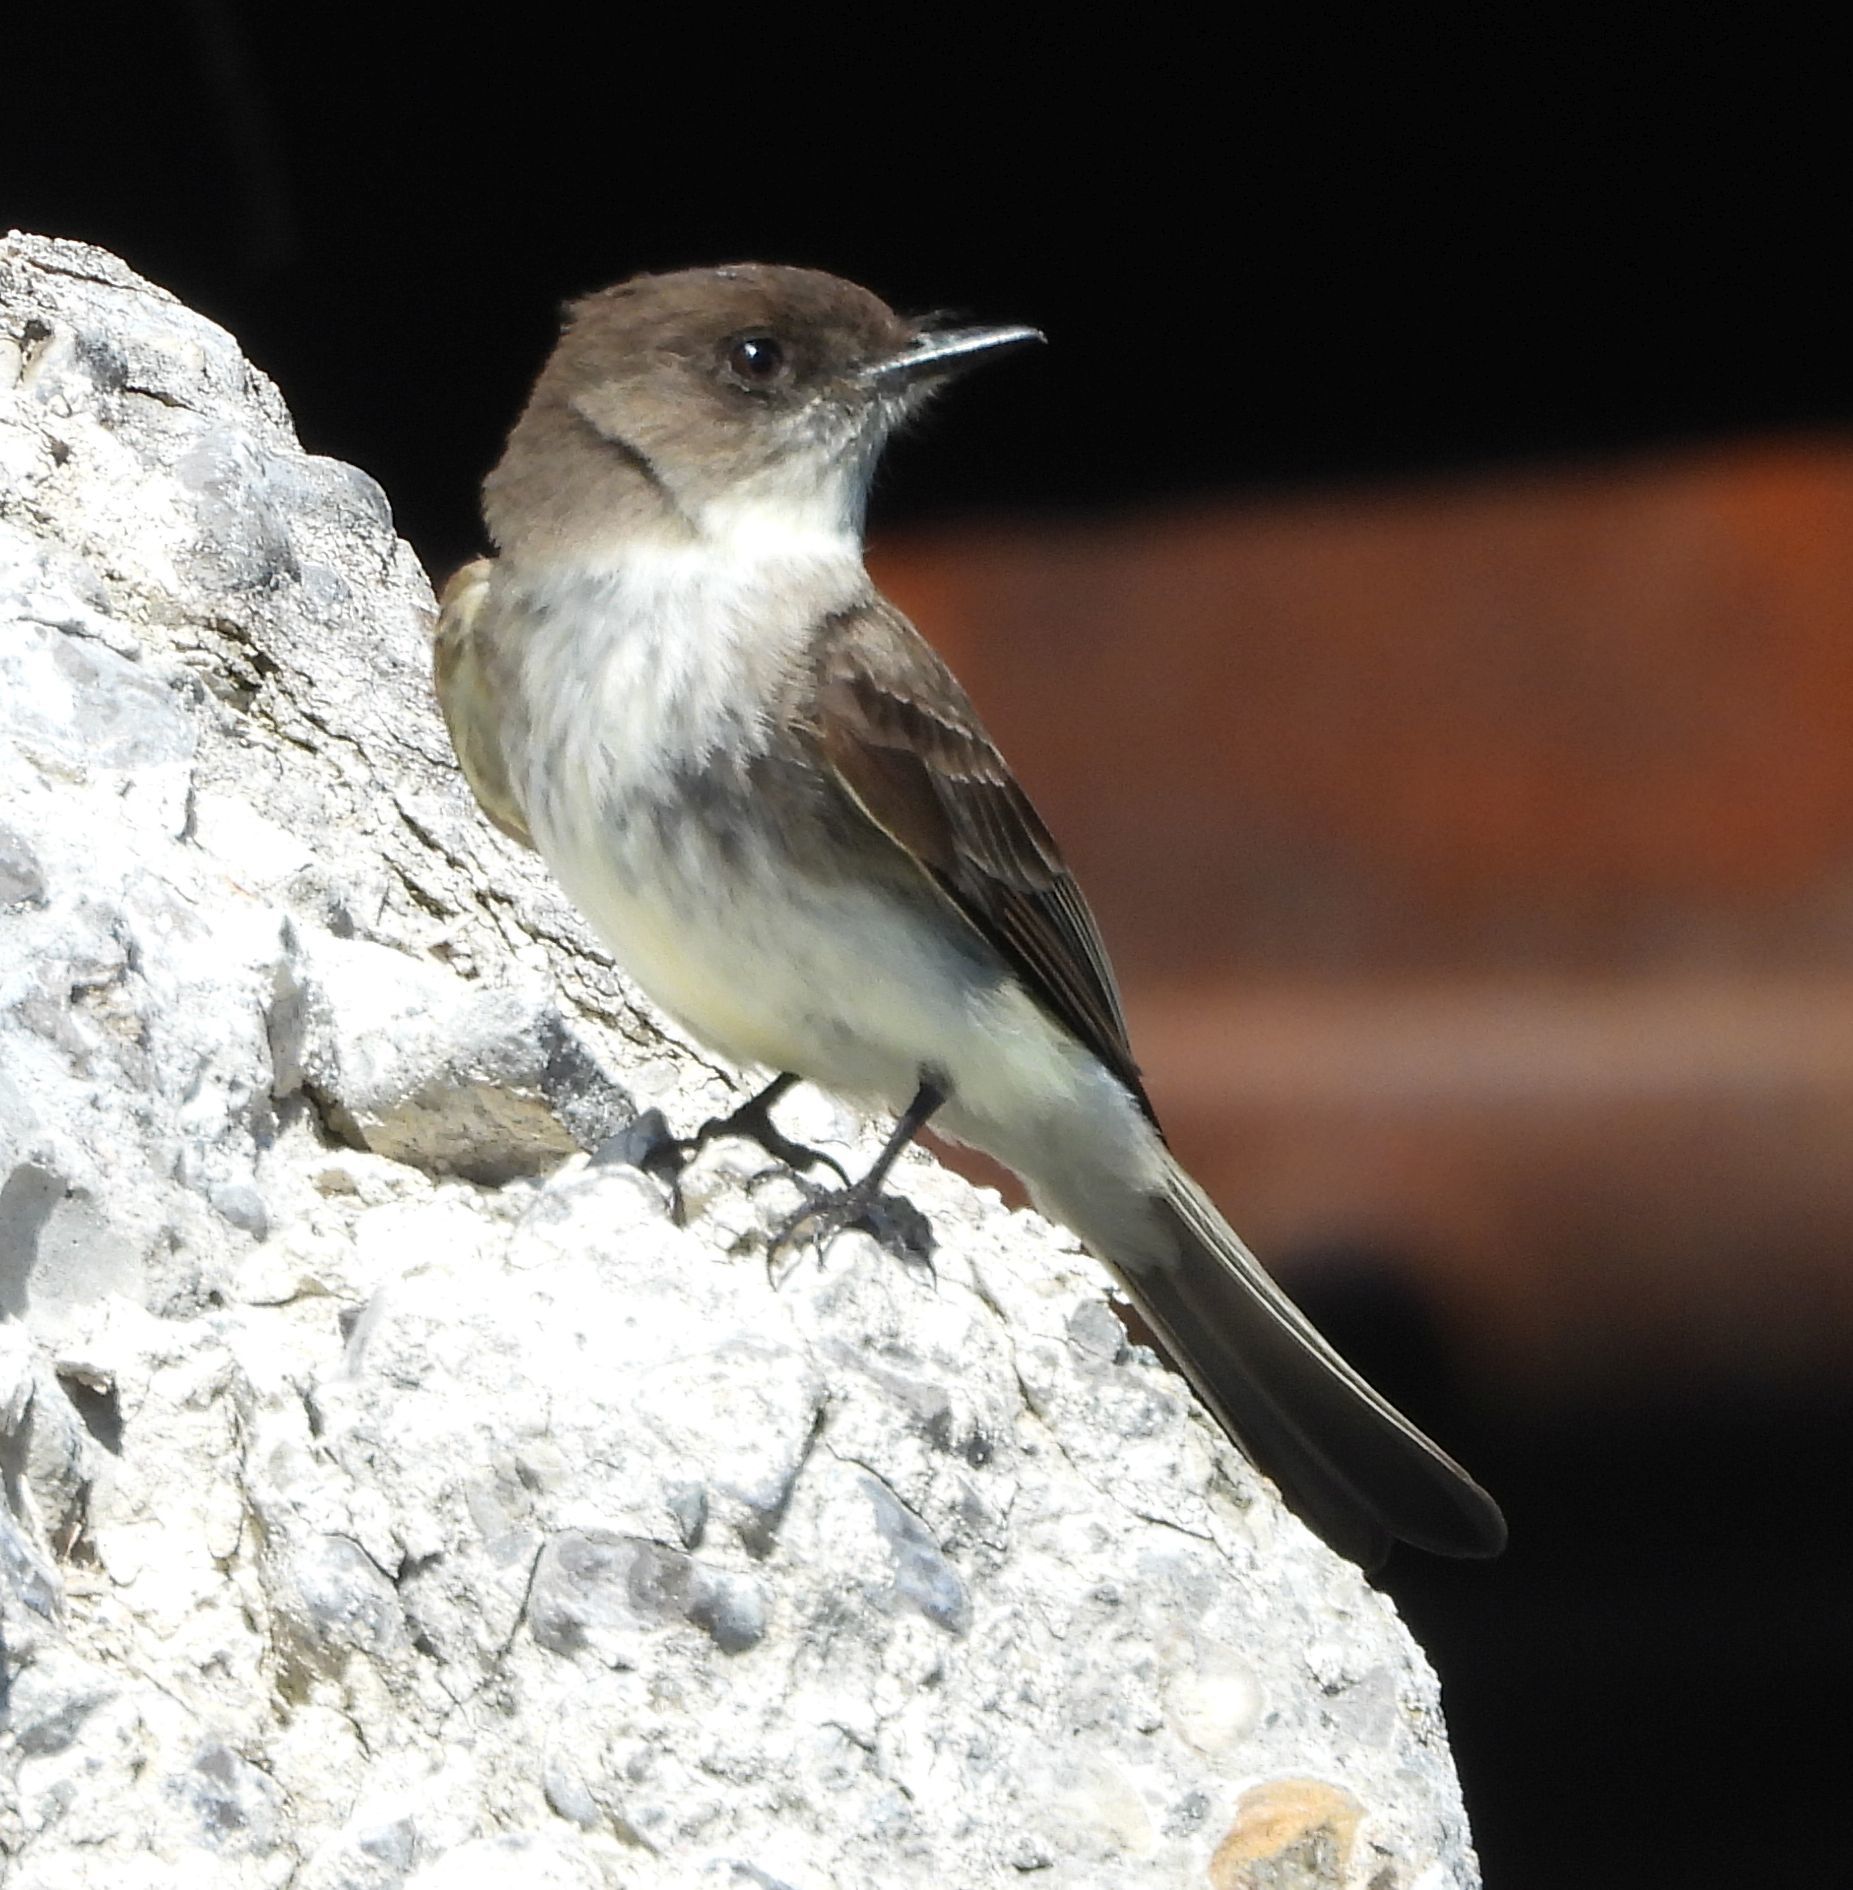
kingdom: Animalia
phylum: Chordata
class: Aves
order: Passeriformes
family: Tyrannidae
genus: Sayornis
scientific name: Sayornis phoebe
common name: Eastern phoebe
